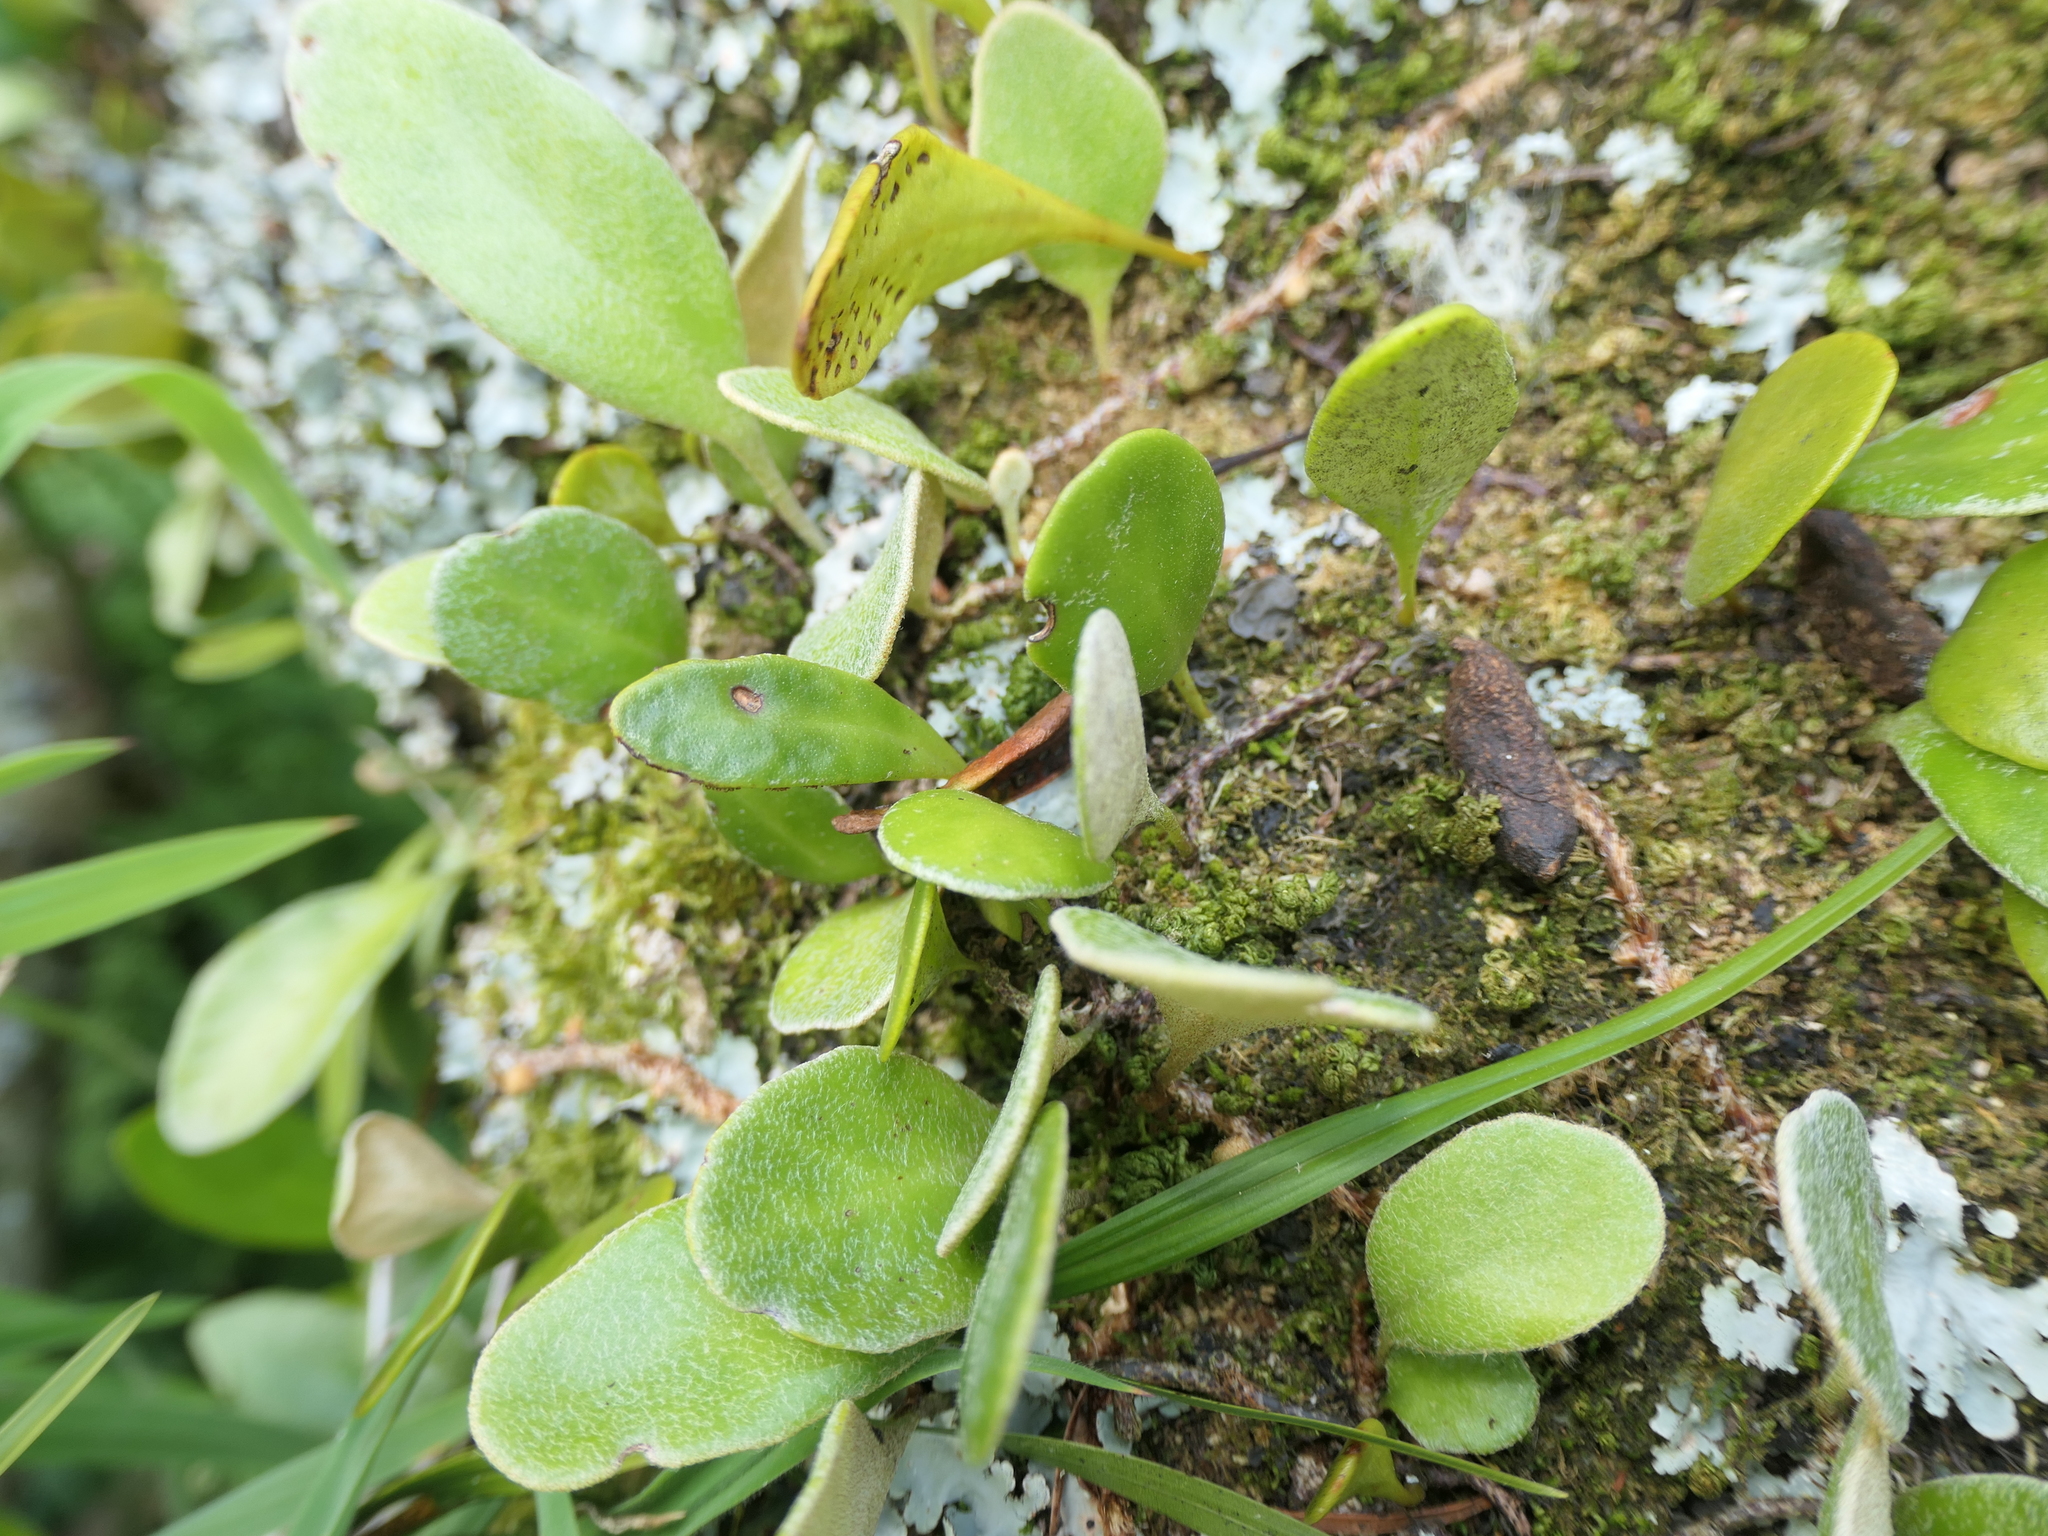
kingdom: Plantae
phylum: Tracheophyta
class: Polypodiopsida
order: Polypodiales
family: Polypodiaceae
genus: Pyrrosia
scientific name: Pyrrosia eleagnifolia
